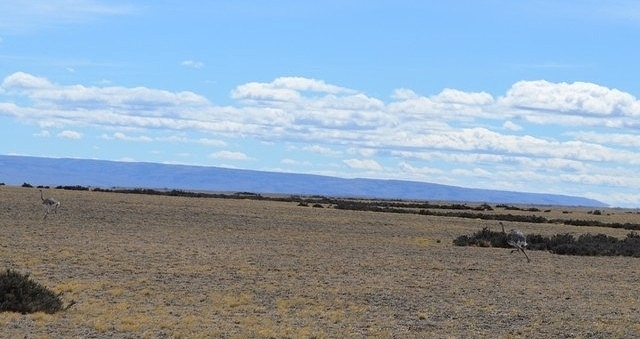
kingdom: Animalia
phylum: Chordata
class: Aves
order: Rheiformes
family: Rheidae
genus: Rhea
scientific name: Rhea pennata
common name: Lesser rhea
